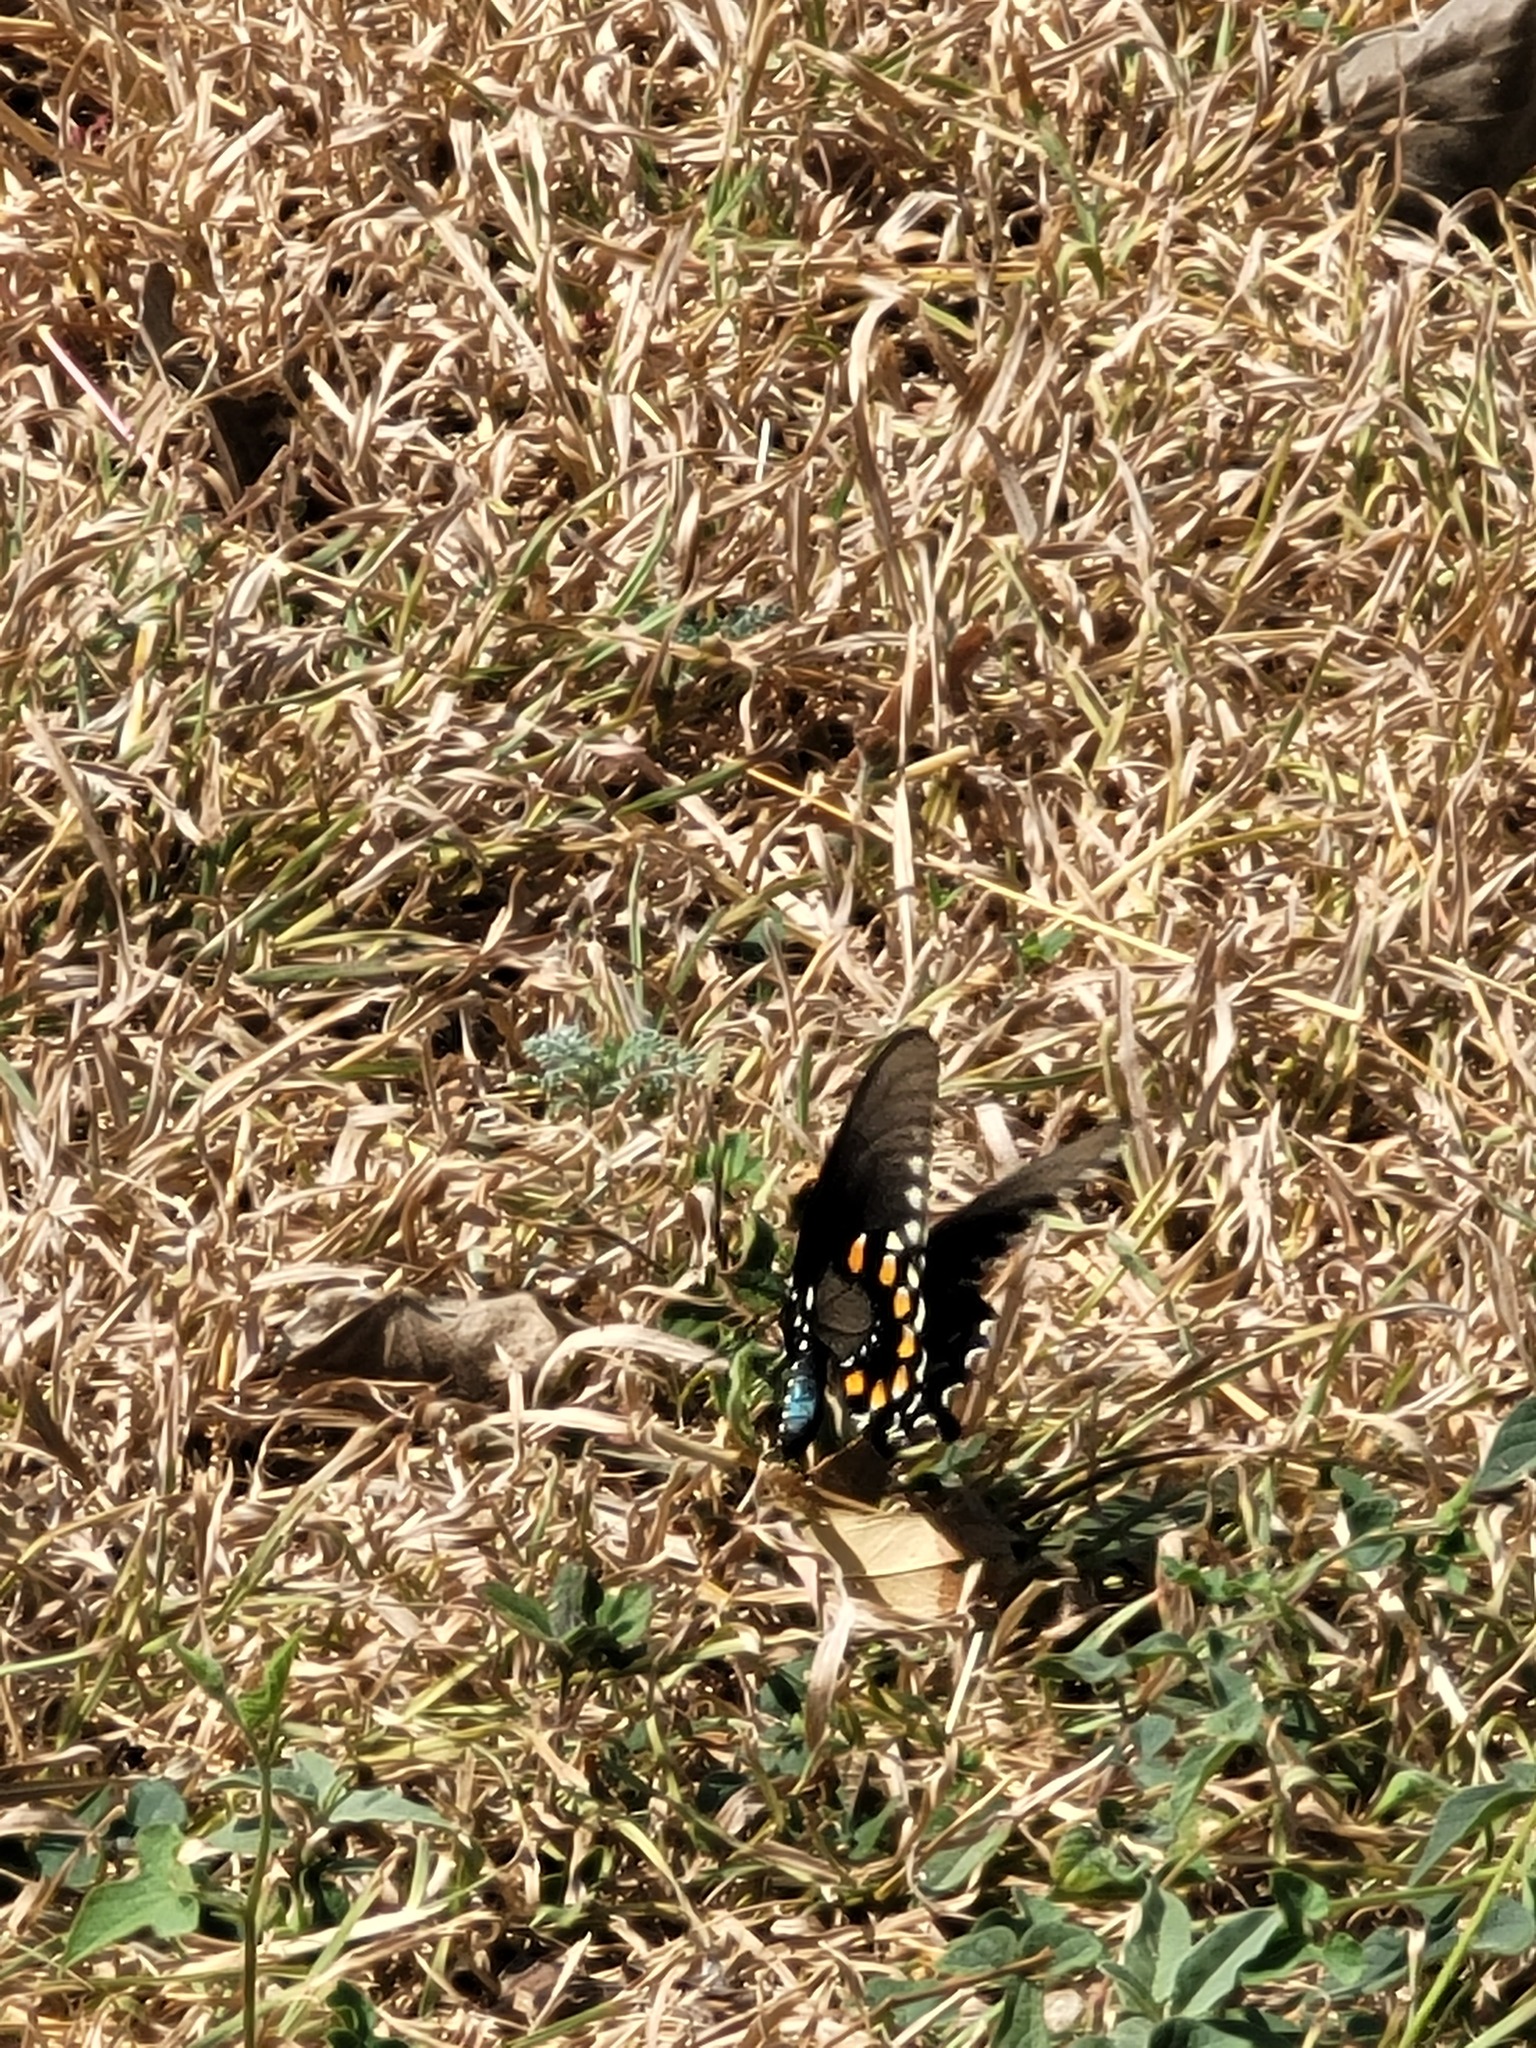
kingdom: Animalia
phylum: Arthropoda
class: Insecta
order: Lepidoptera
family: Papilionidae
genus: Battus
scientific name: Battus philenor
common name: Pipevine swallowtail
